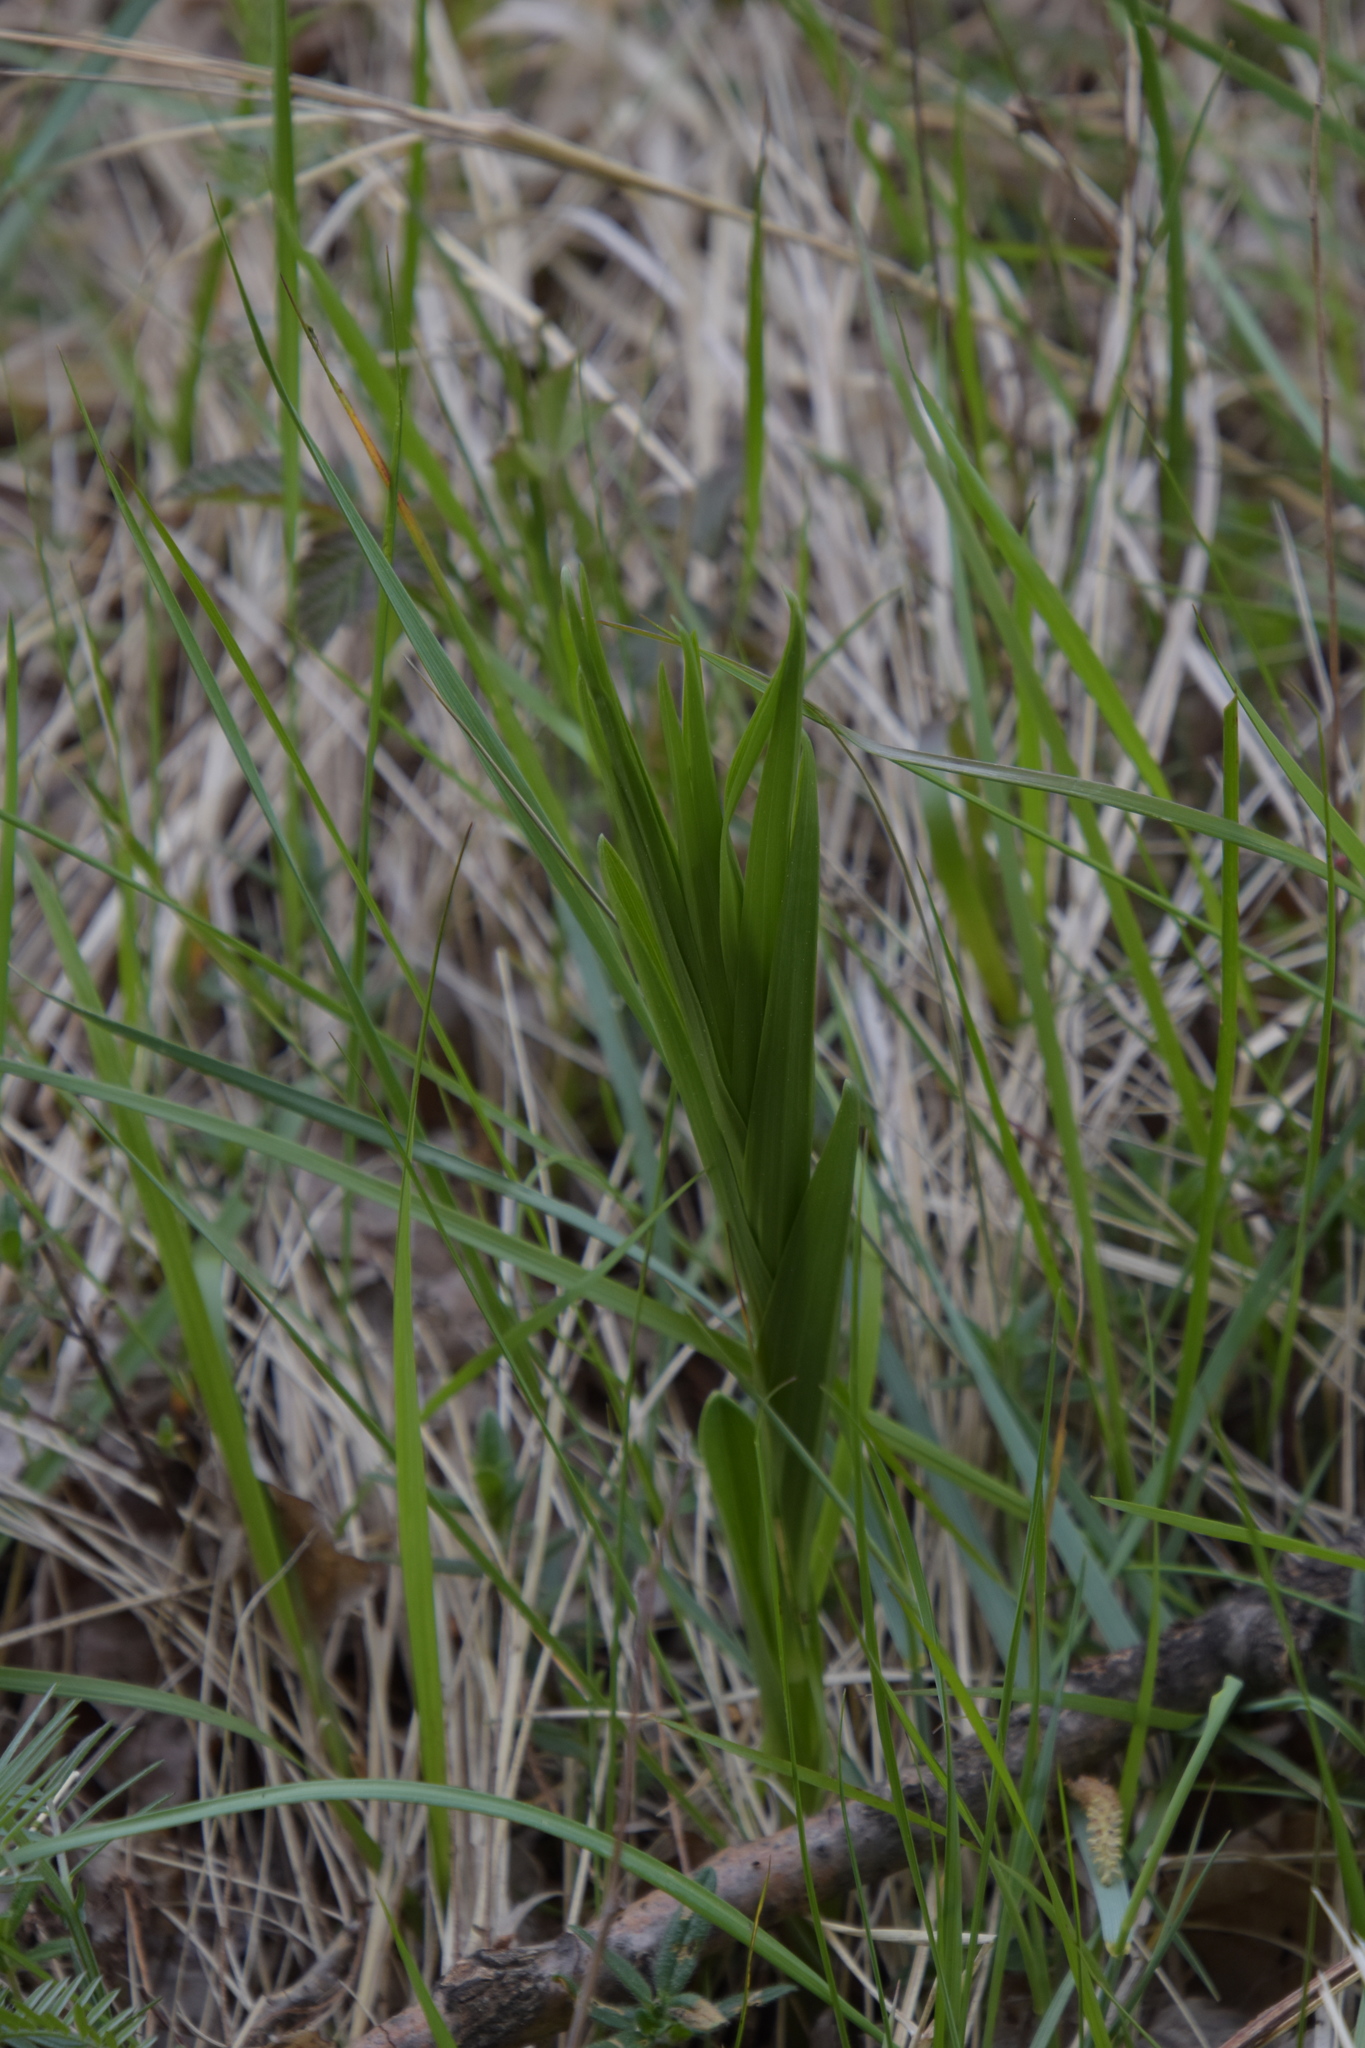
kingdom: Plantae
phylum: Tracheophyta
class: Liliopsida
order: Asparagales
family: Orchidaceae
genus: Cephalanthera
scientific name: Cephalanthera longifolia
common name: Narrow-leaved helleborine
